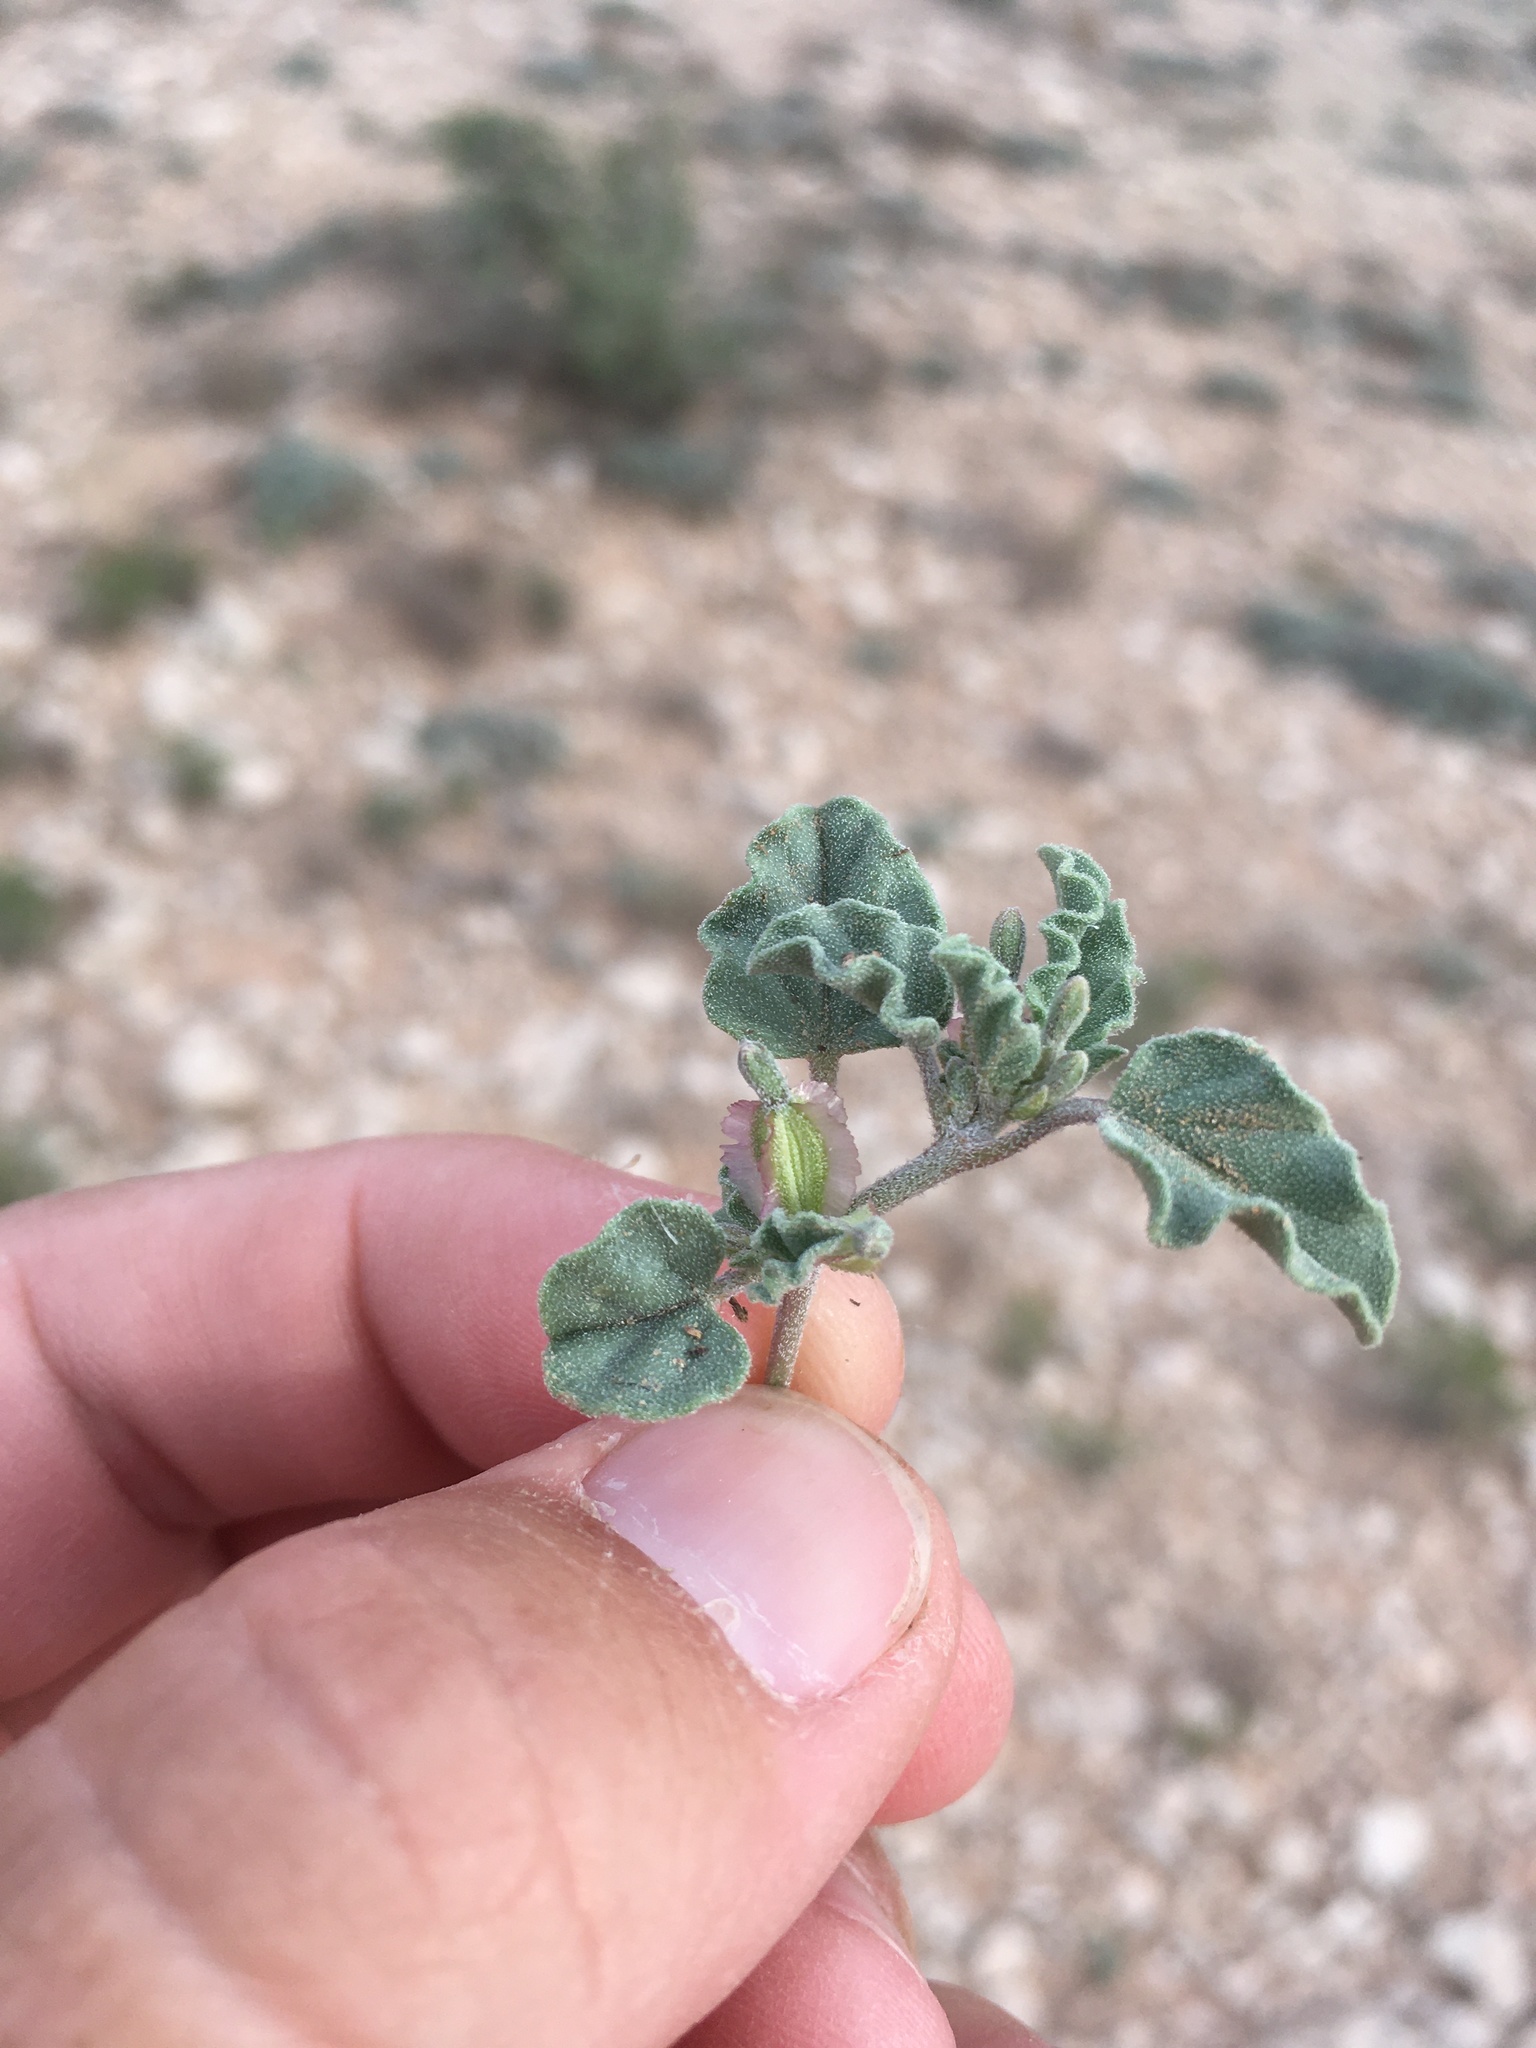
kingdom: Plantae
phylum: Tracheophyta
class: Magnoliopsida
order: Caryophyllales
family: Nyctaginaceae
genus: Acleisanthes
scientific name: Acleisanthes diffusa
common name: Spreading moonpod
